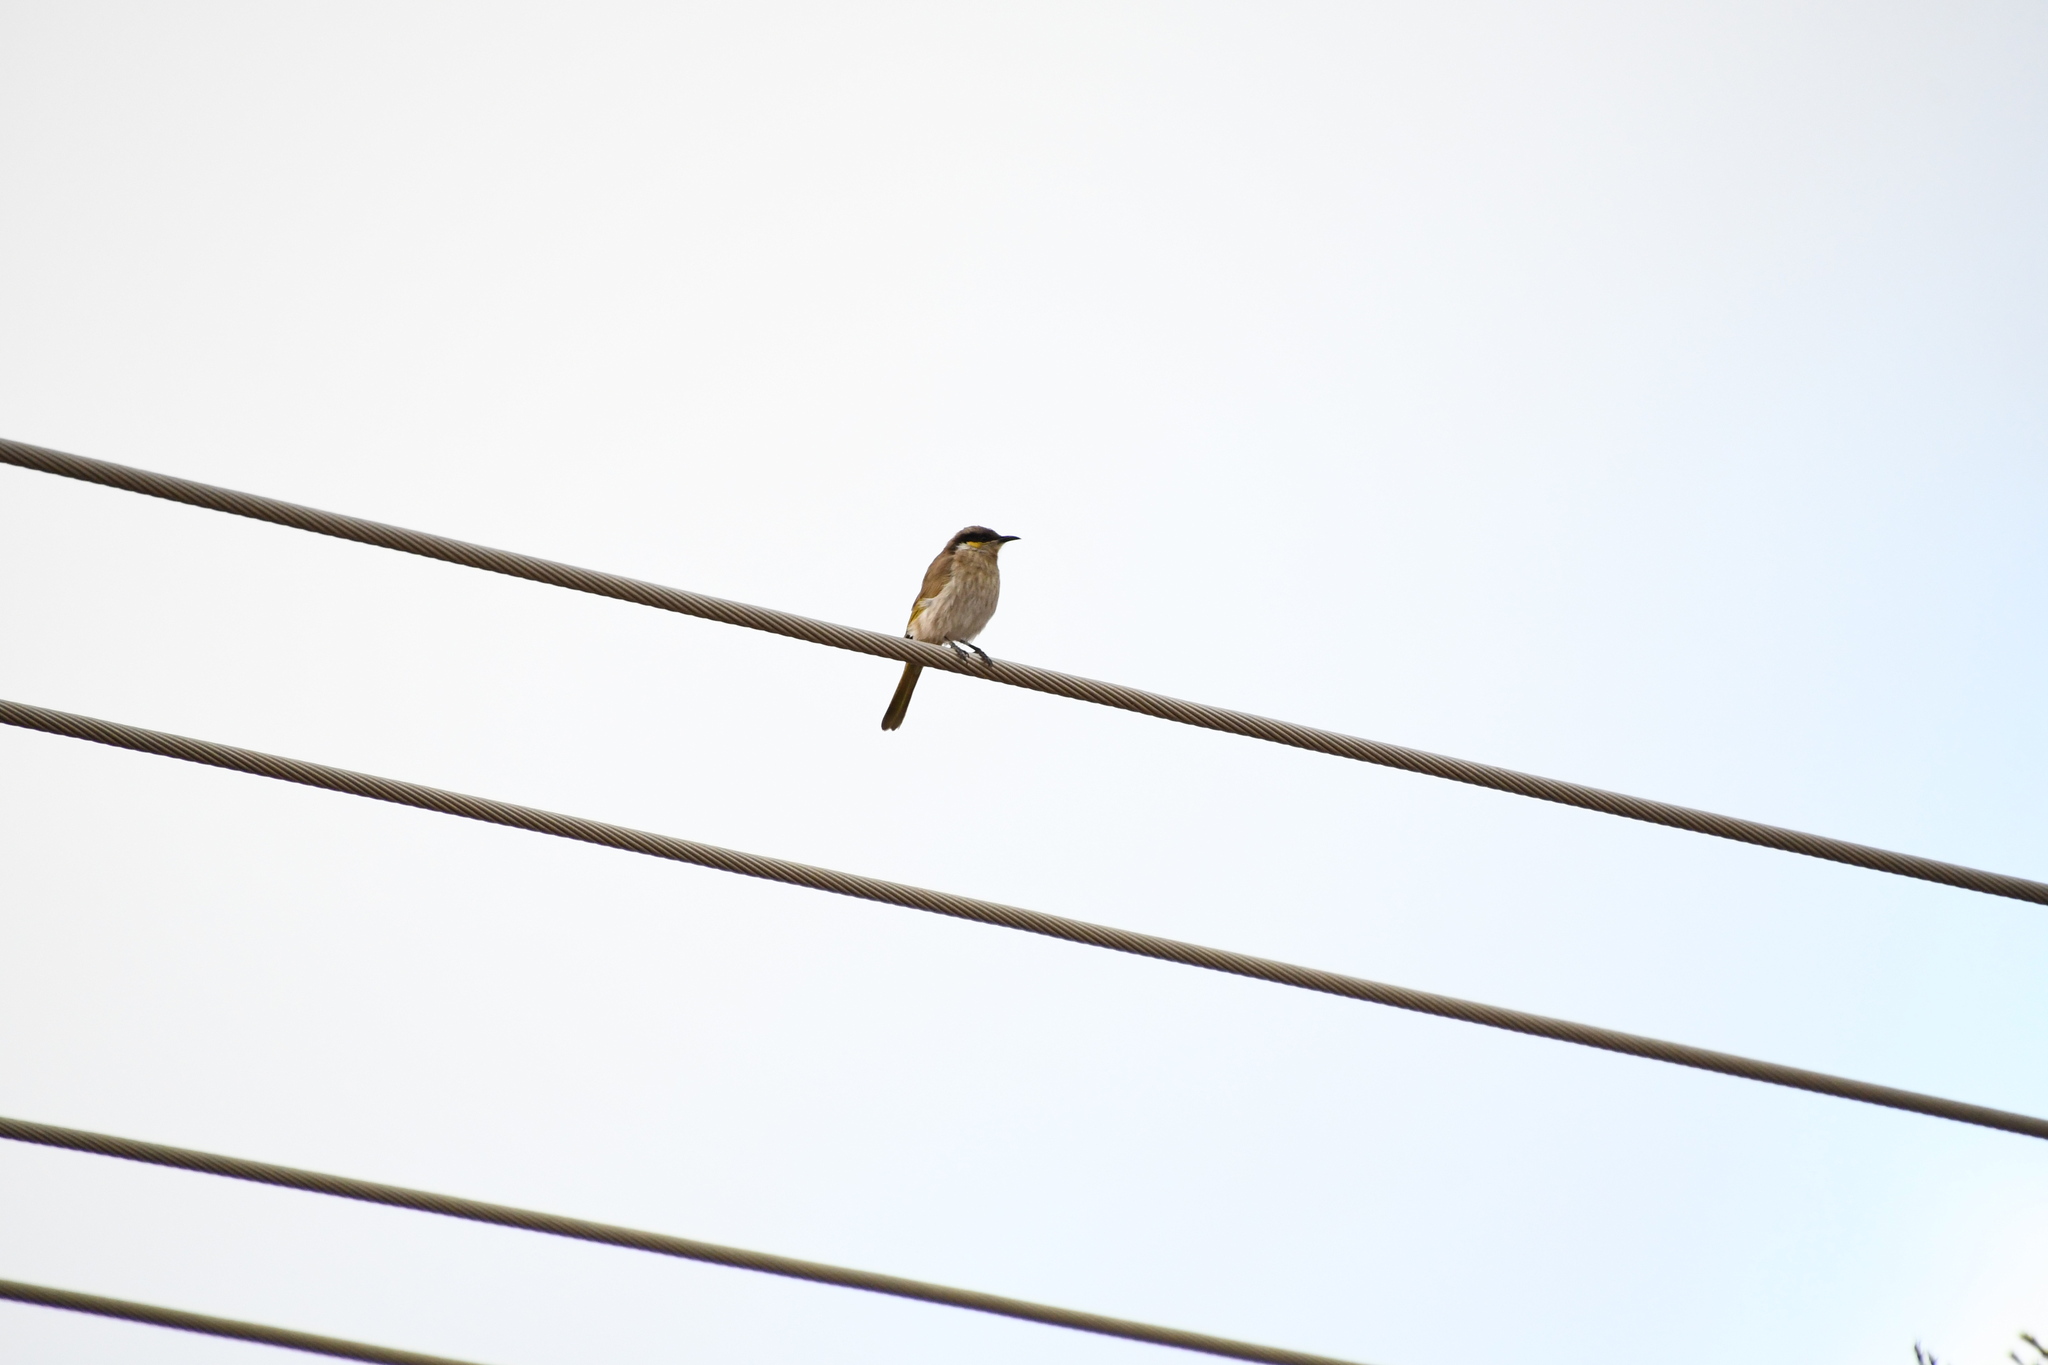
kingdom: Animalia
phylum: Chordata
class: Aves
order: Passeriformes
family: Meliphagidae
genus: Gavicalis
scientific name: Gavicalis virescens
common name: Singing honeyeater
